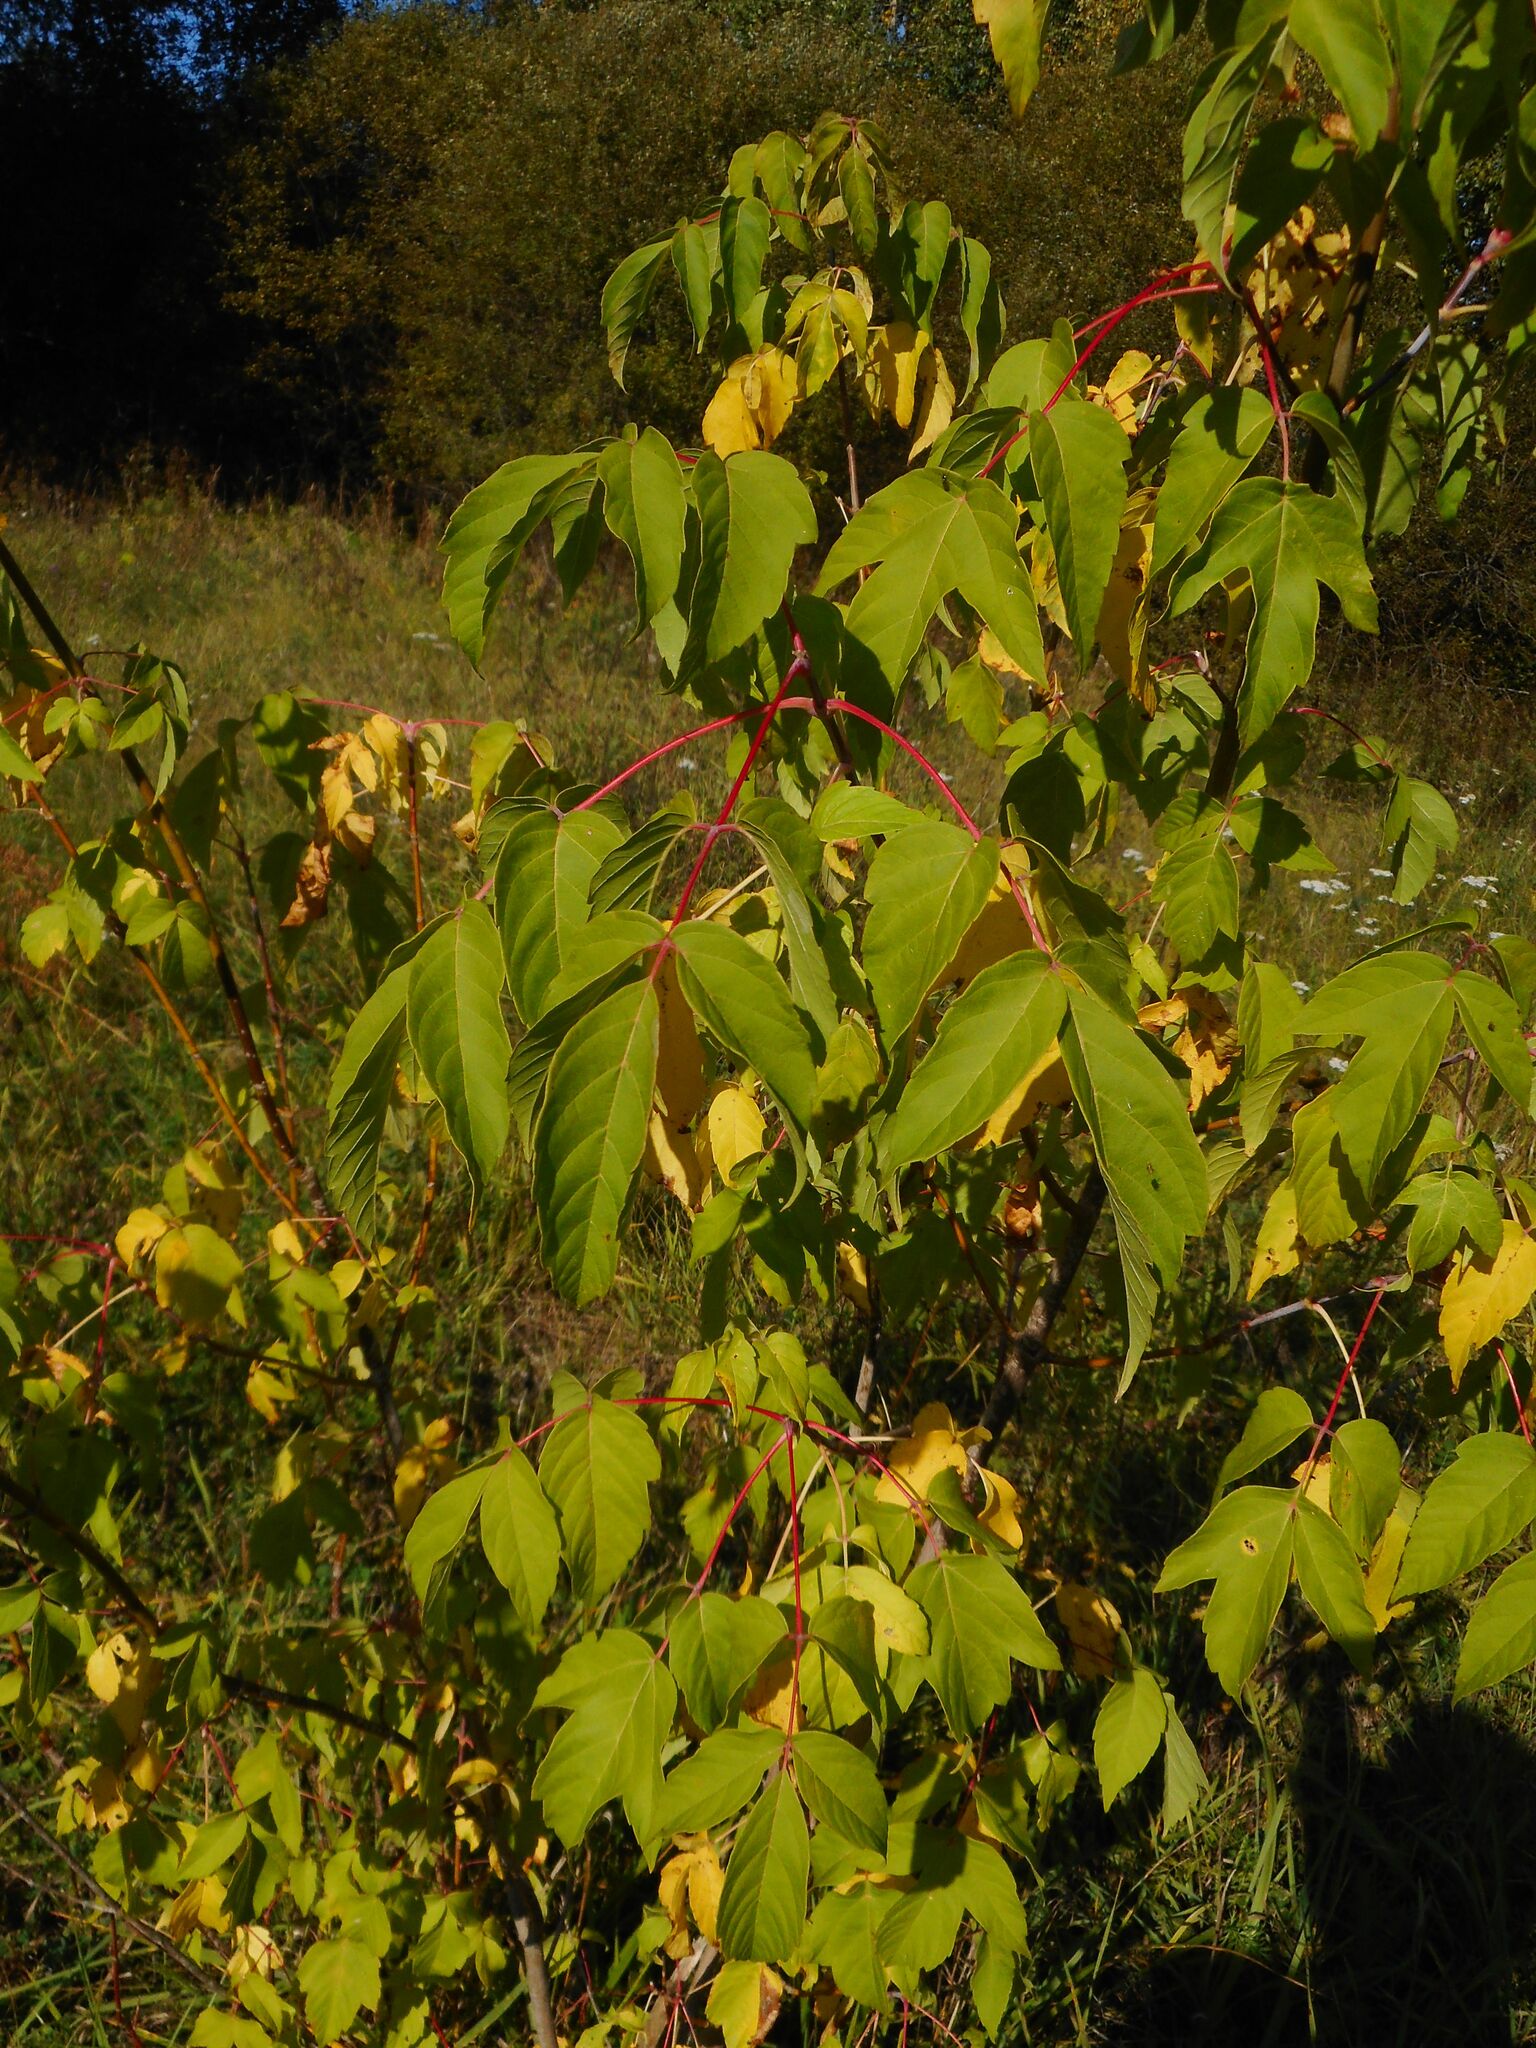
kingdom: Plantae
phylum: Tracheophyta
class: Magnoliopsida
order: Sapindales
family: Sapindaceae
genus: Acer
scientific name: Acer negundo
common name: Ashleaf maple
